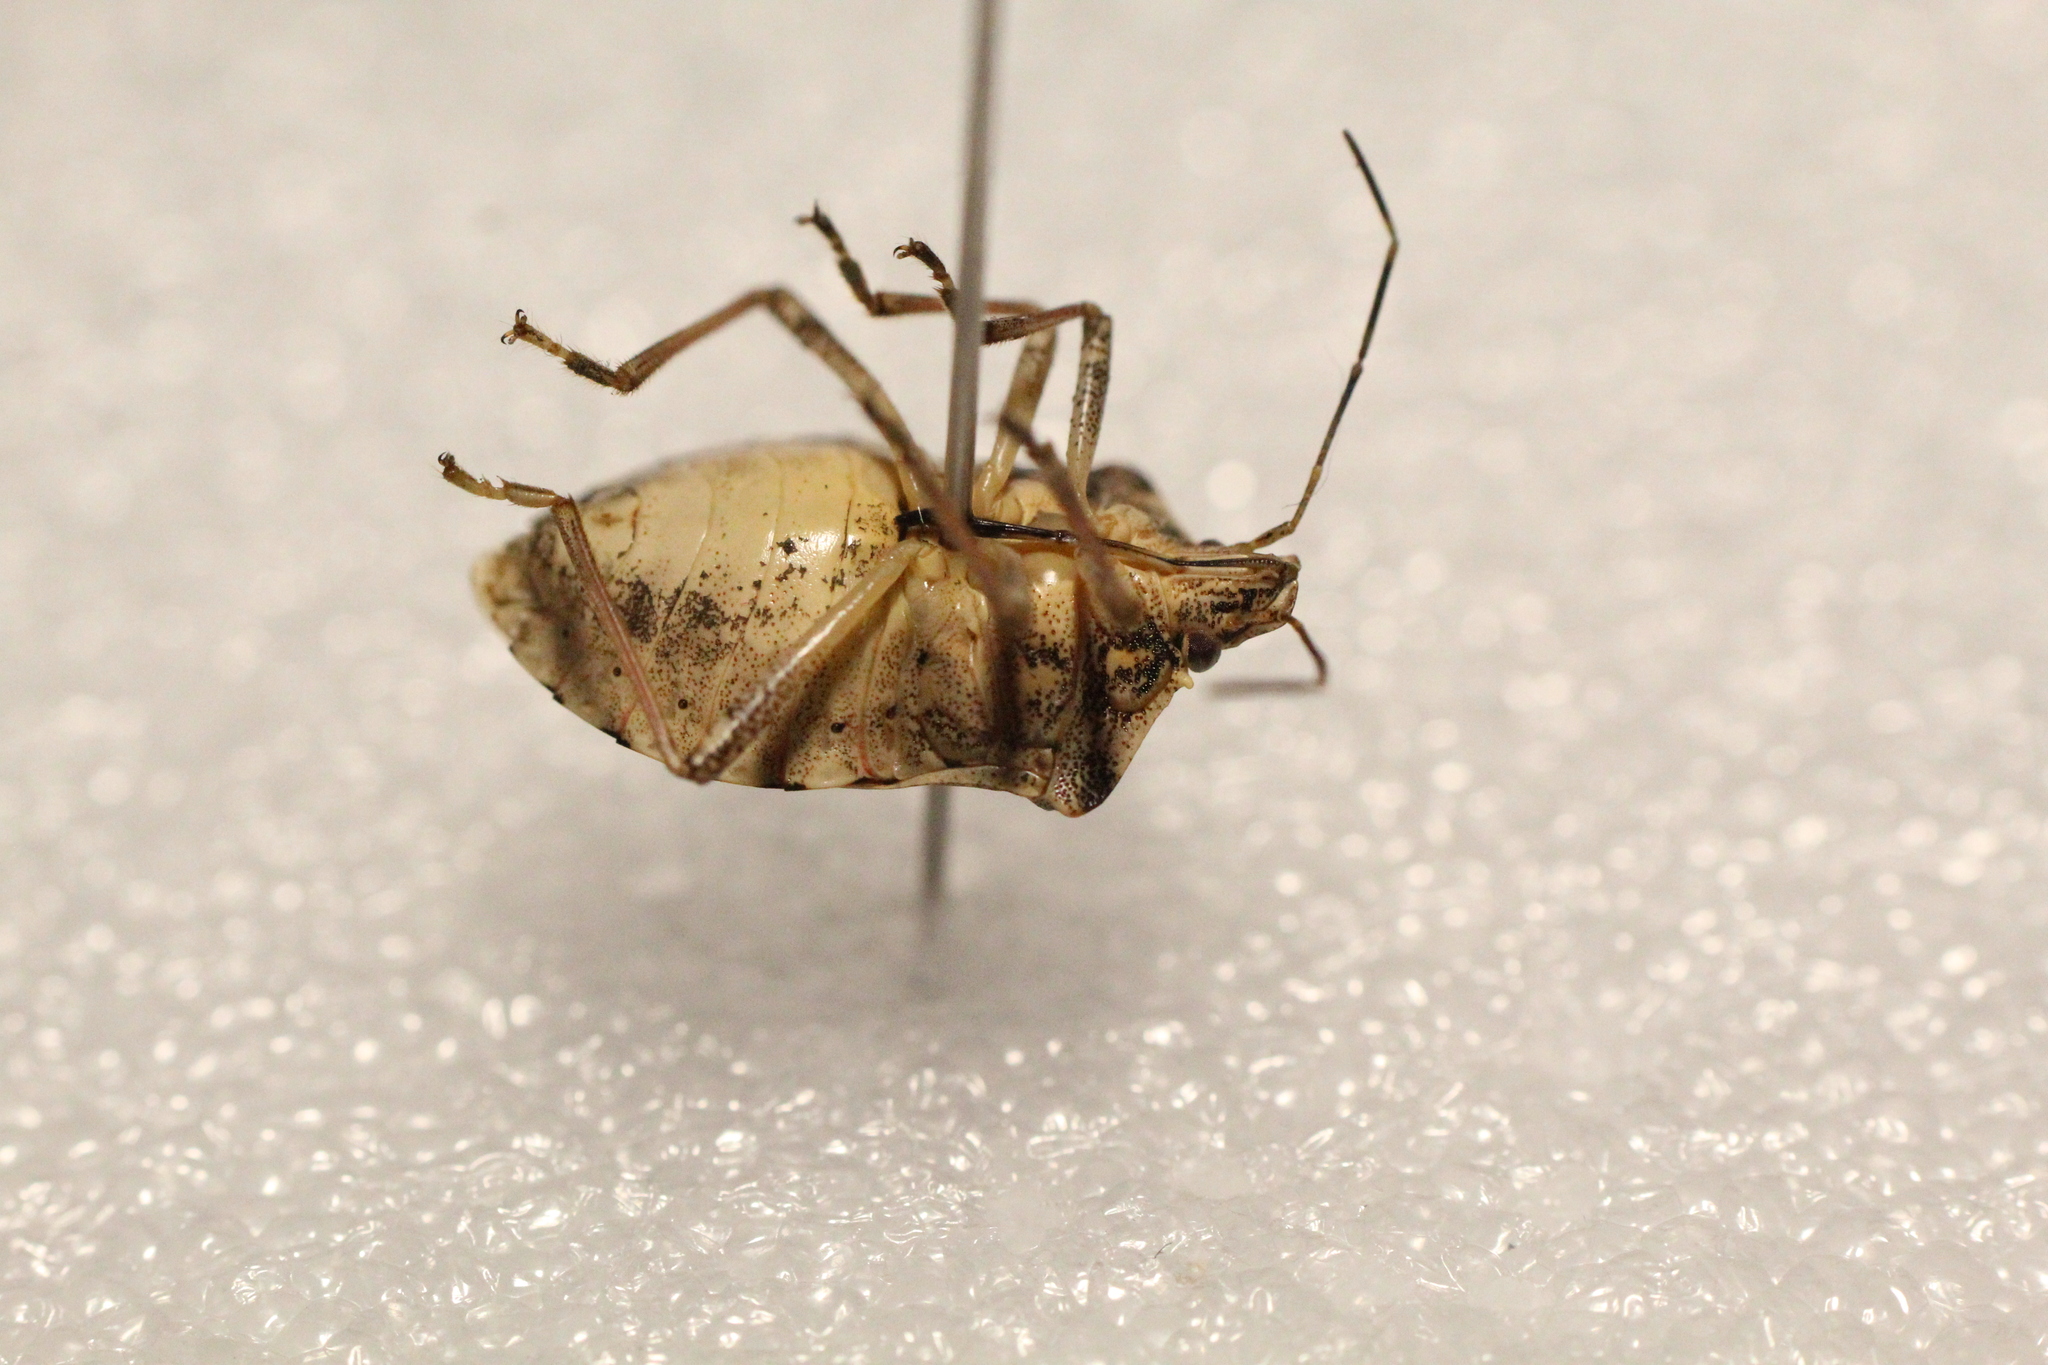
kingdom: Animalia
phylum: Arthropoda
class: Insecta
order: Hemiptera
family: Pentatomidae
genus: Halyomorpha
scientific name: Halyomorpha halys
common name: Brown marmorated stink bug
